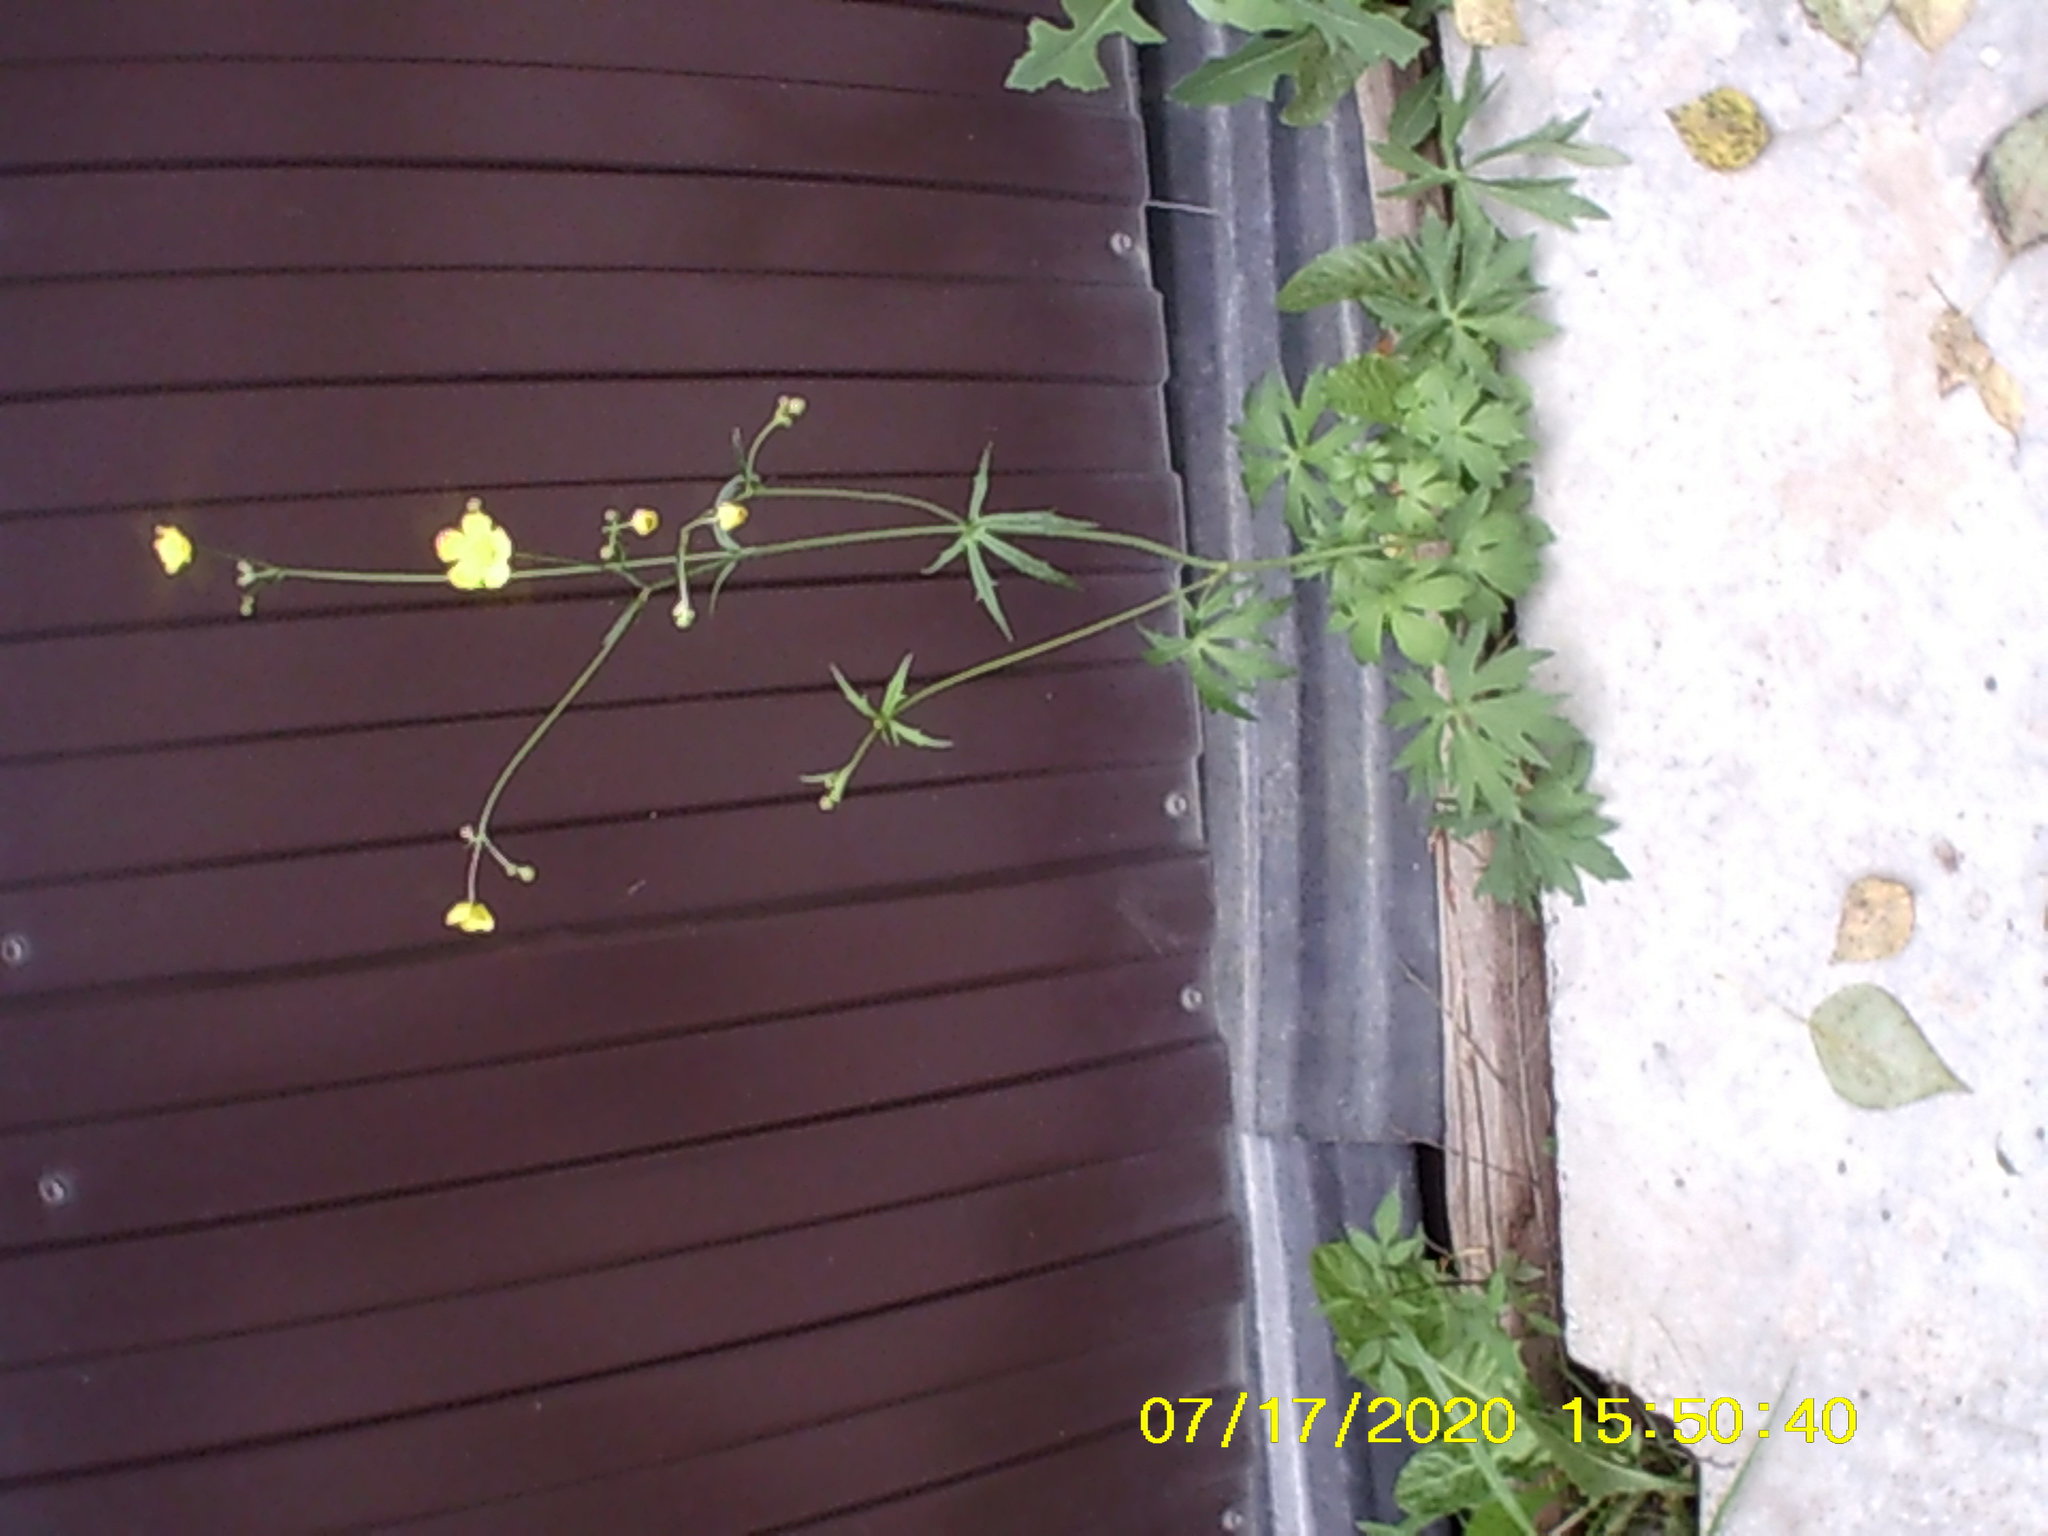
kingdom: Plantae
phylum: Tracheophyta
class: Magnoliopsida
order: Ranunculales
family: Ranunculaceae
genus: Ranunculus
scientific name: Ranunculus acris
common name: Meadow buttercup
